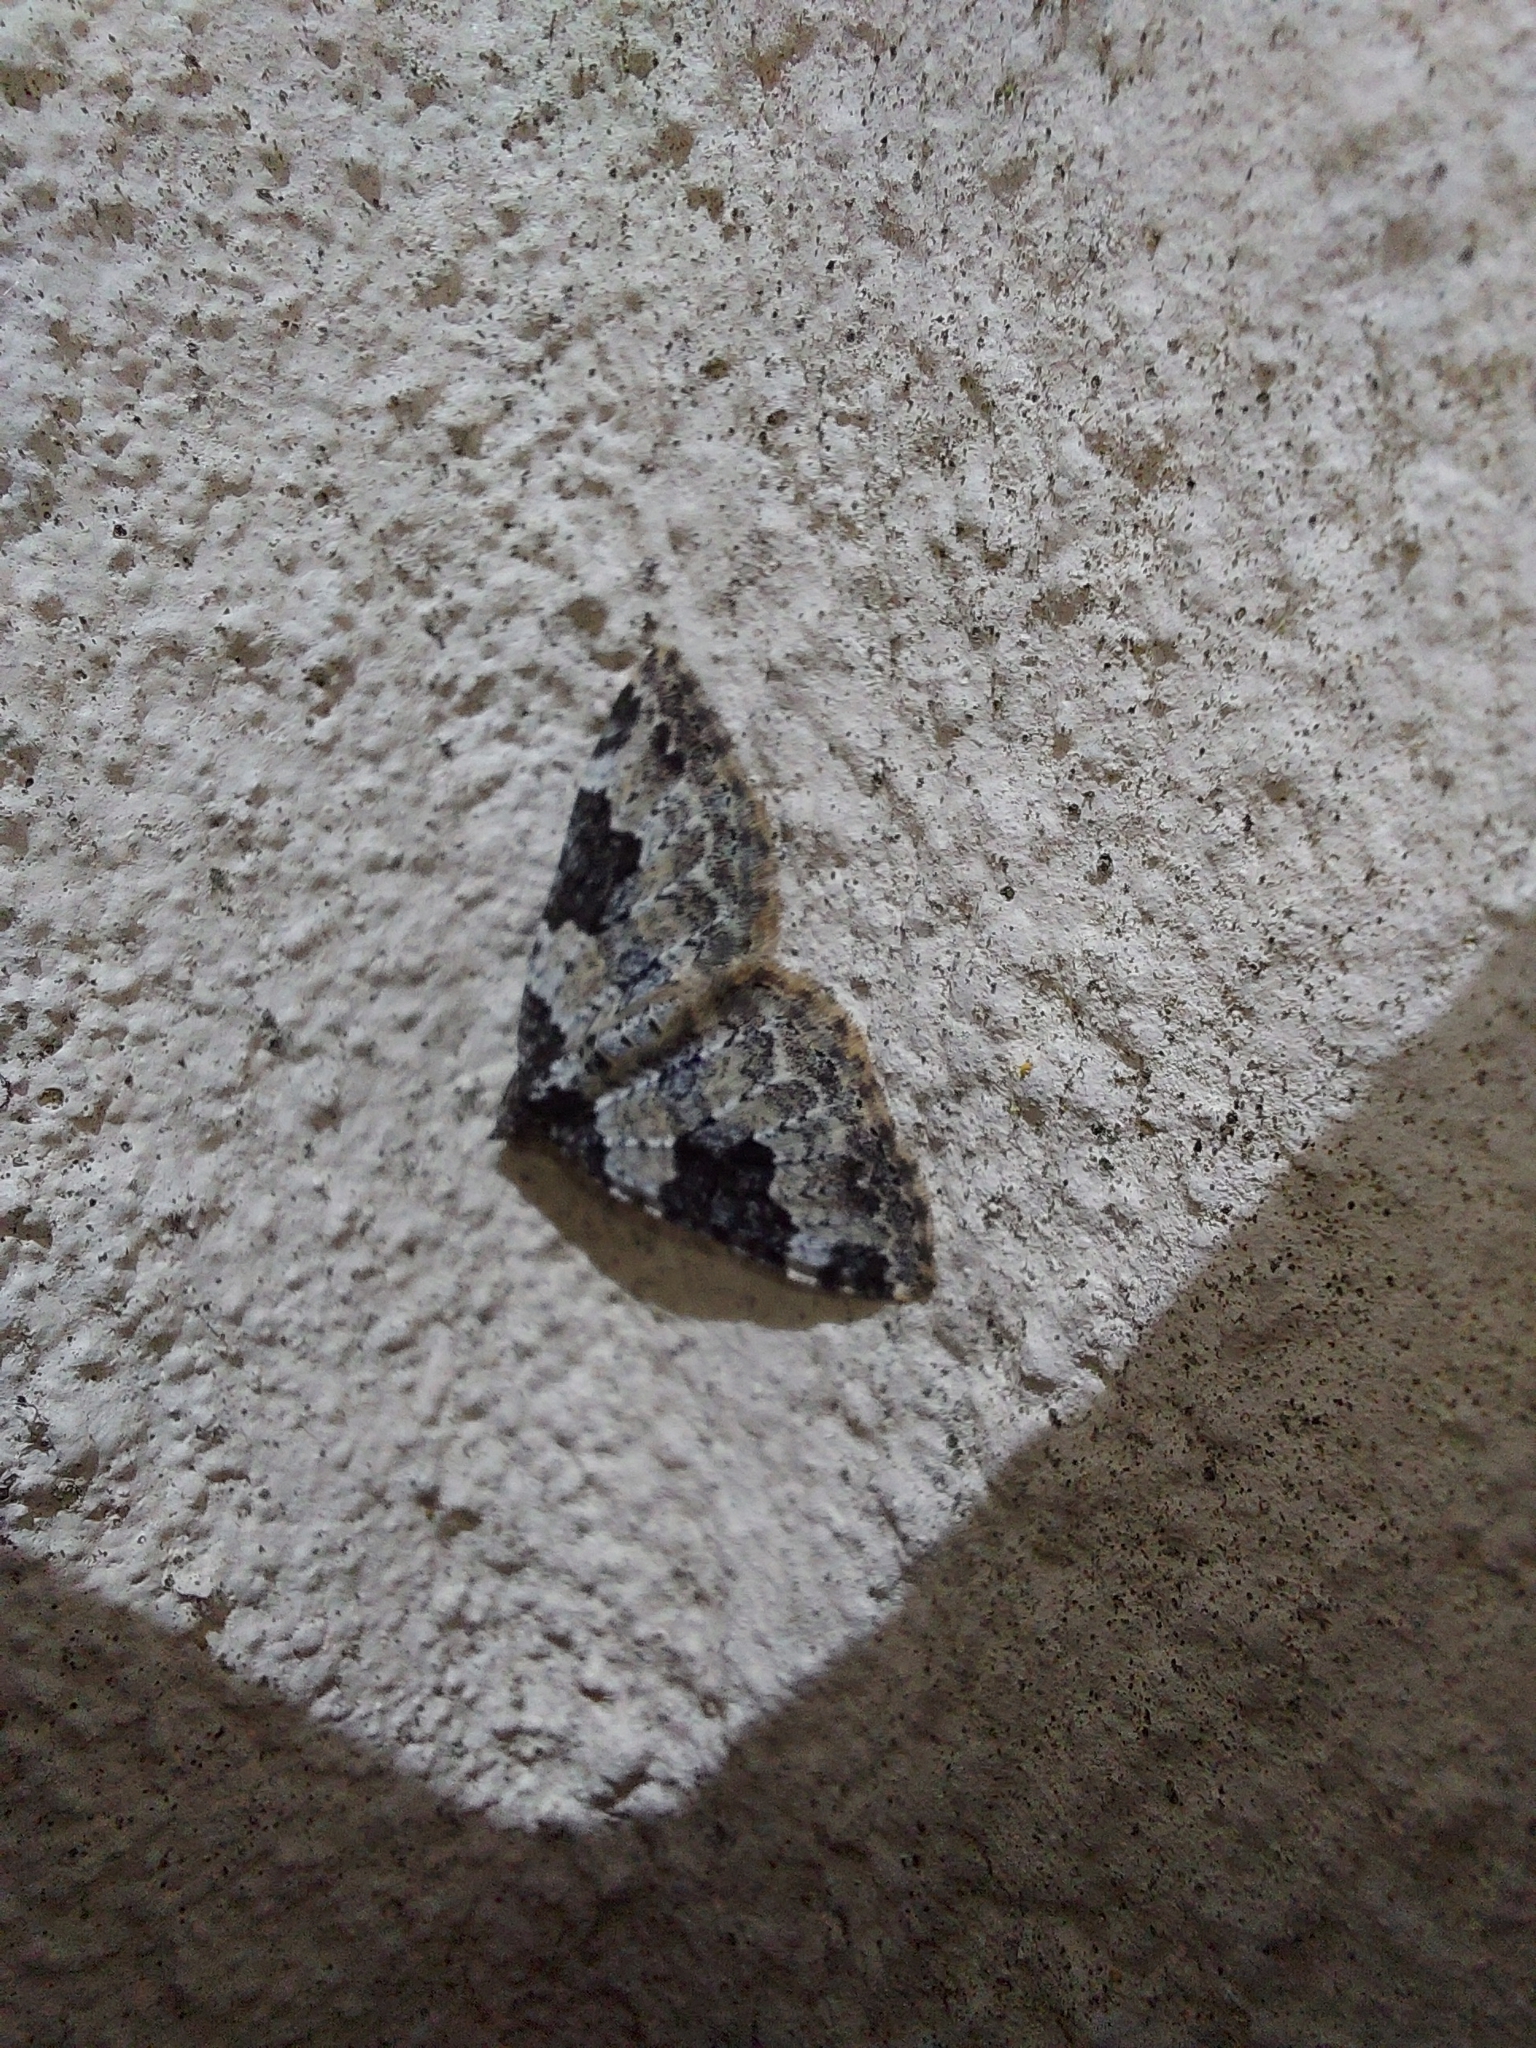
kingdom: Animalia
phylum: Arthropoda
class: Insecta
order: Lepidoptera
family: Geometridae
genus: Xanthorhoe
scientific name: Xanthorhoe fluctuata
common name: Garden carpet
